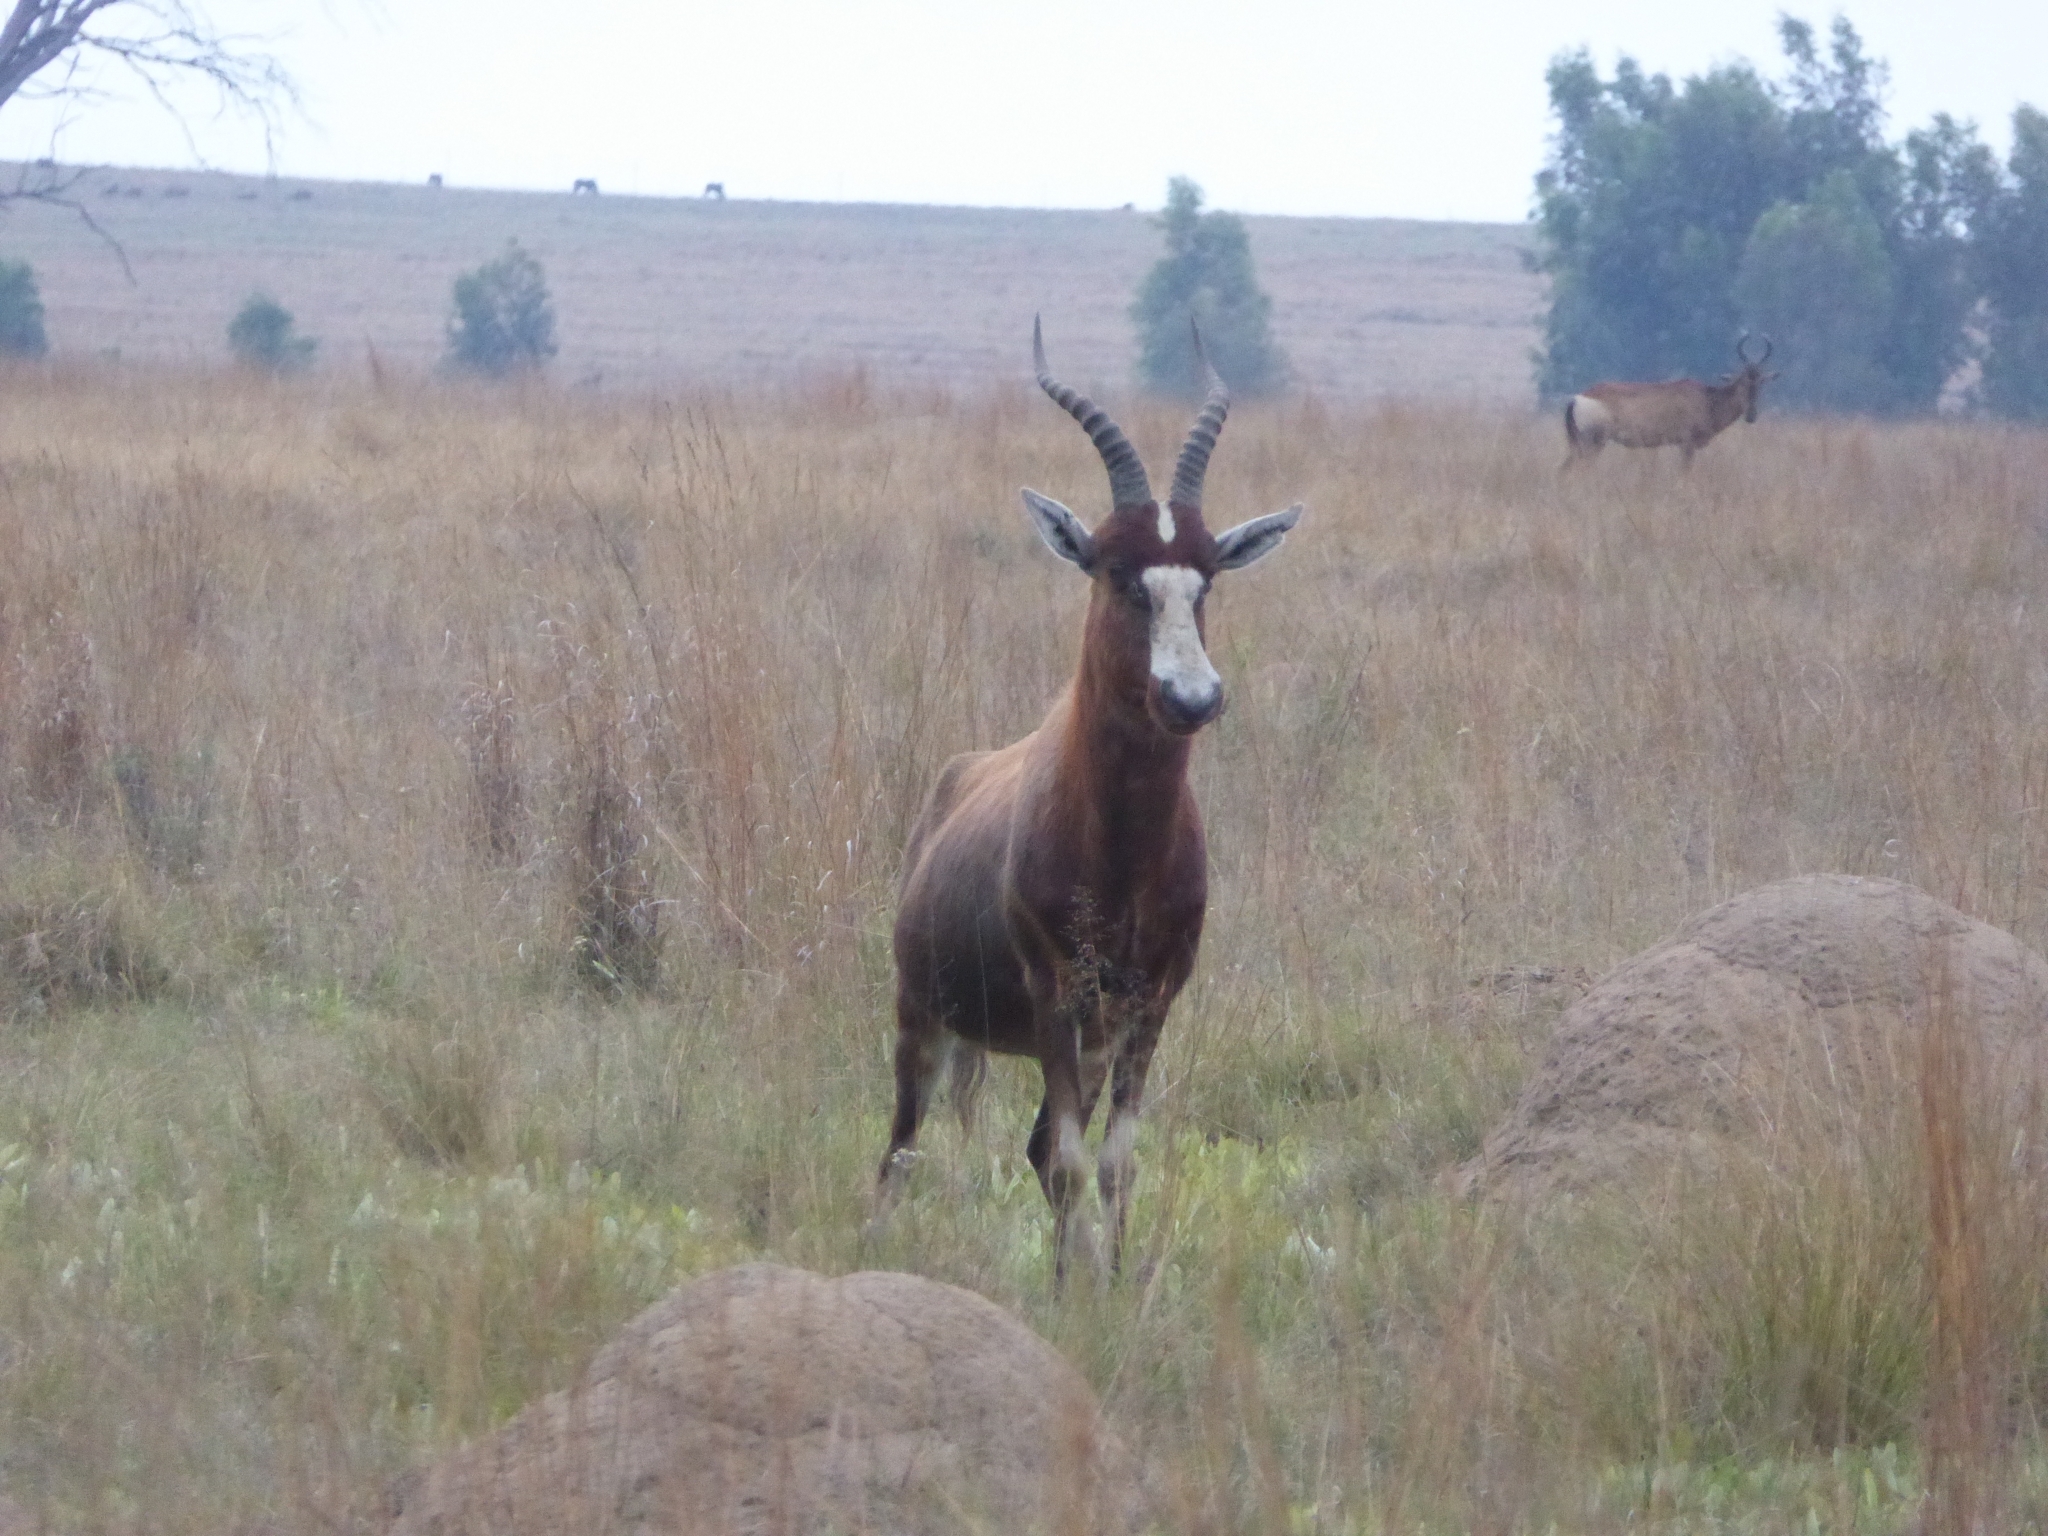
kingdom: Animalia
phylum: Chordata
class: Mammalia
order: Artiodactyla
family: Bovidae
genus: Damaliscus
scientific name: Damaliscus pygargus
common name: Bontebok
